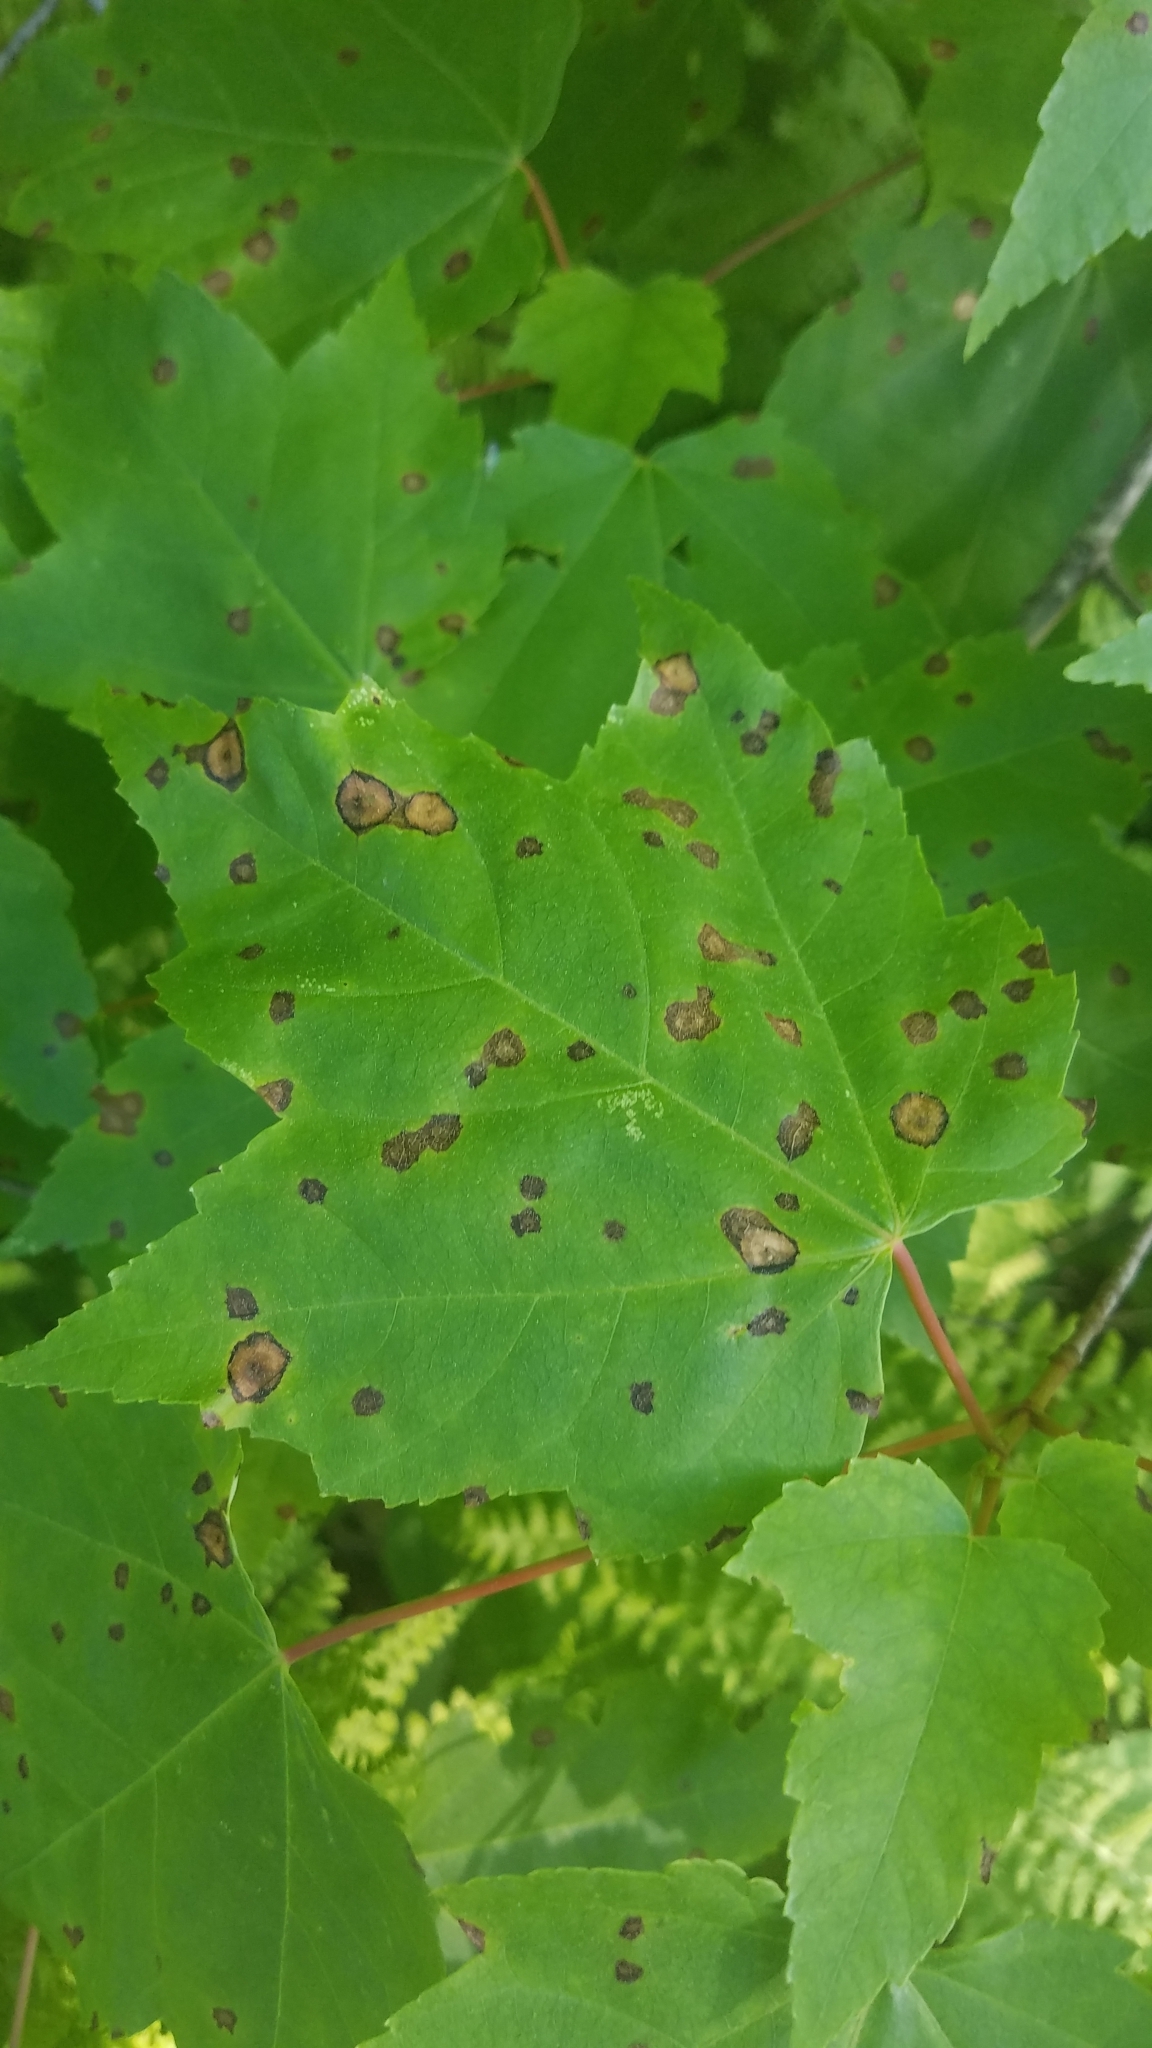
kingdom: Animalia
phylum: Arthropoda
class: Insecta
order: Diptera
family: Cecidomyiidae
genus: Acericecis
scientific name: Acericecis ocellaris
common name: Ocellate gall midge
